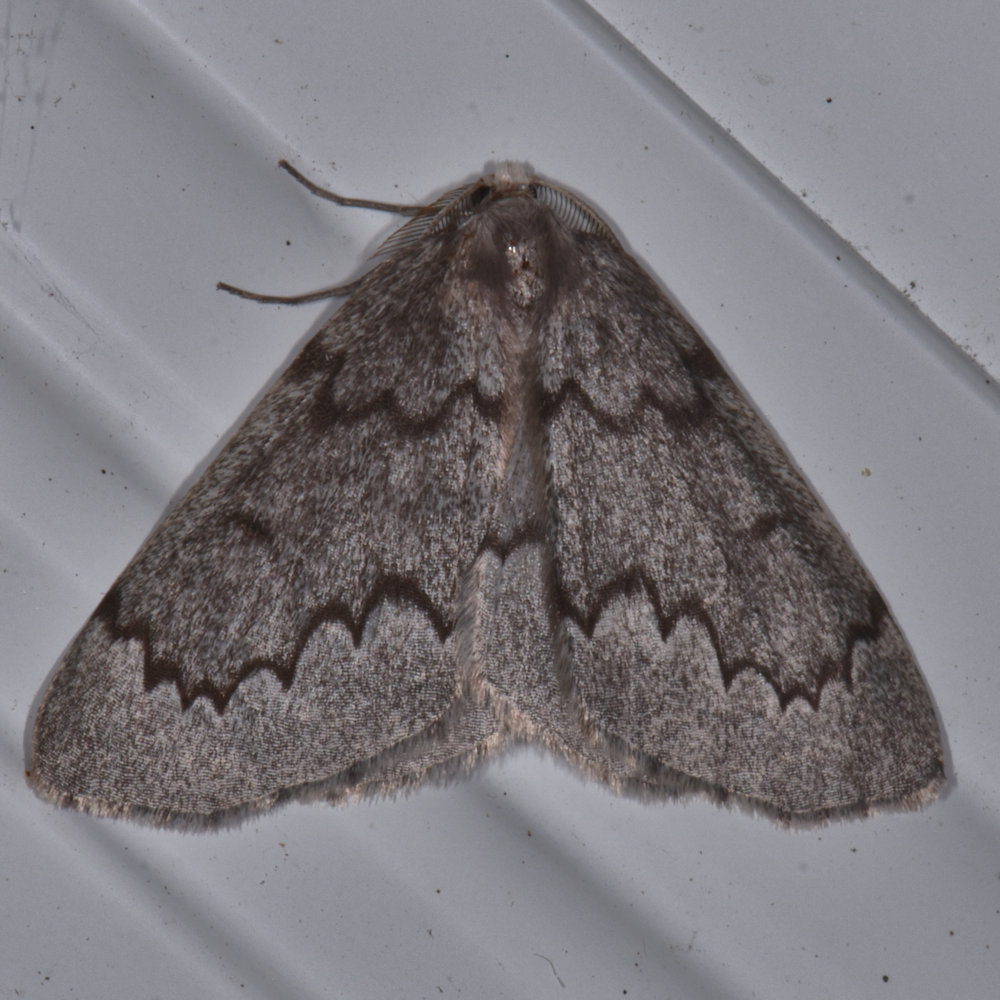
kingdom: Animalia
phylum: Arthropoda
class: Insecta
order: Lepidoptera
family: Geometridae
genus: Nepytia
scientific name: Nepytia pellucidaria
